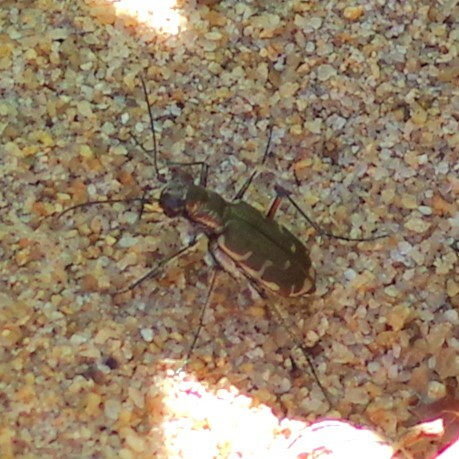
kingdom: Animalia
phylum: Arthropoda
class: Insecta
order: Coleoptera
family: Carabidae
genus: Cicindela
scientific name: Cicindela repanda
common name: Bronzed tiger beetle
